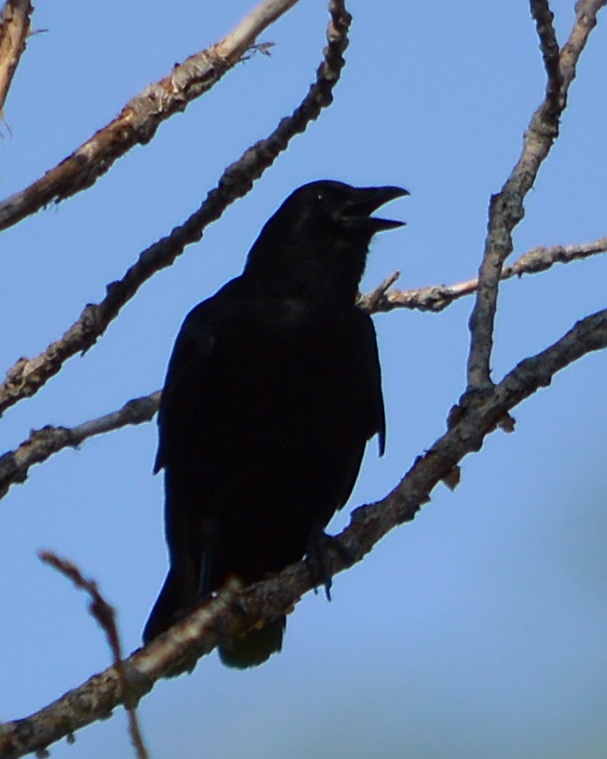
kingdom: Animalia
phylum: Chordata
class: Aves
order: Passeriformes
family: Corvidae
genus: Corvus
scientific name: Corvus brachyrhynchos
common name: American crow
